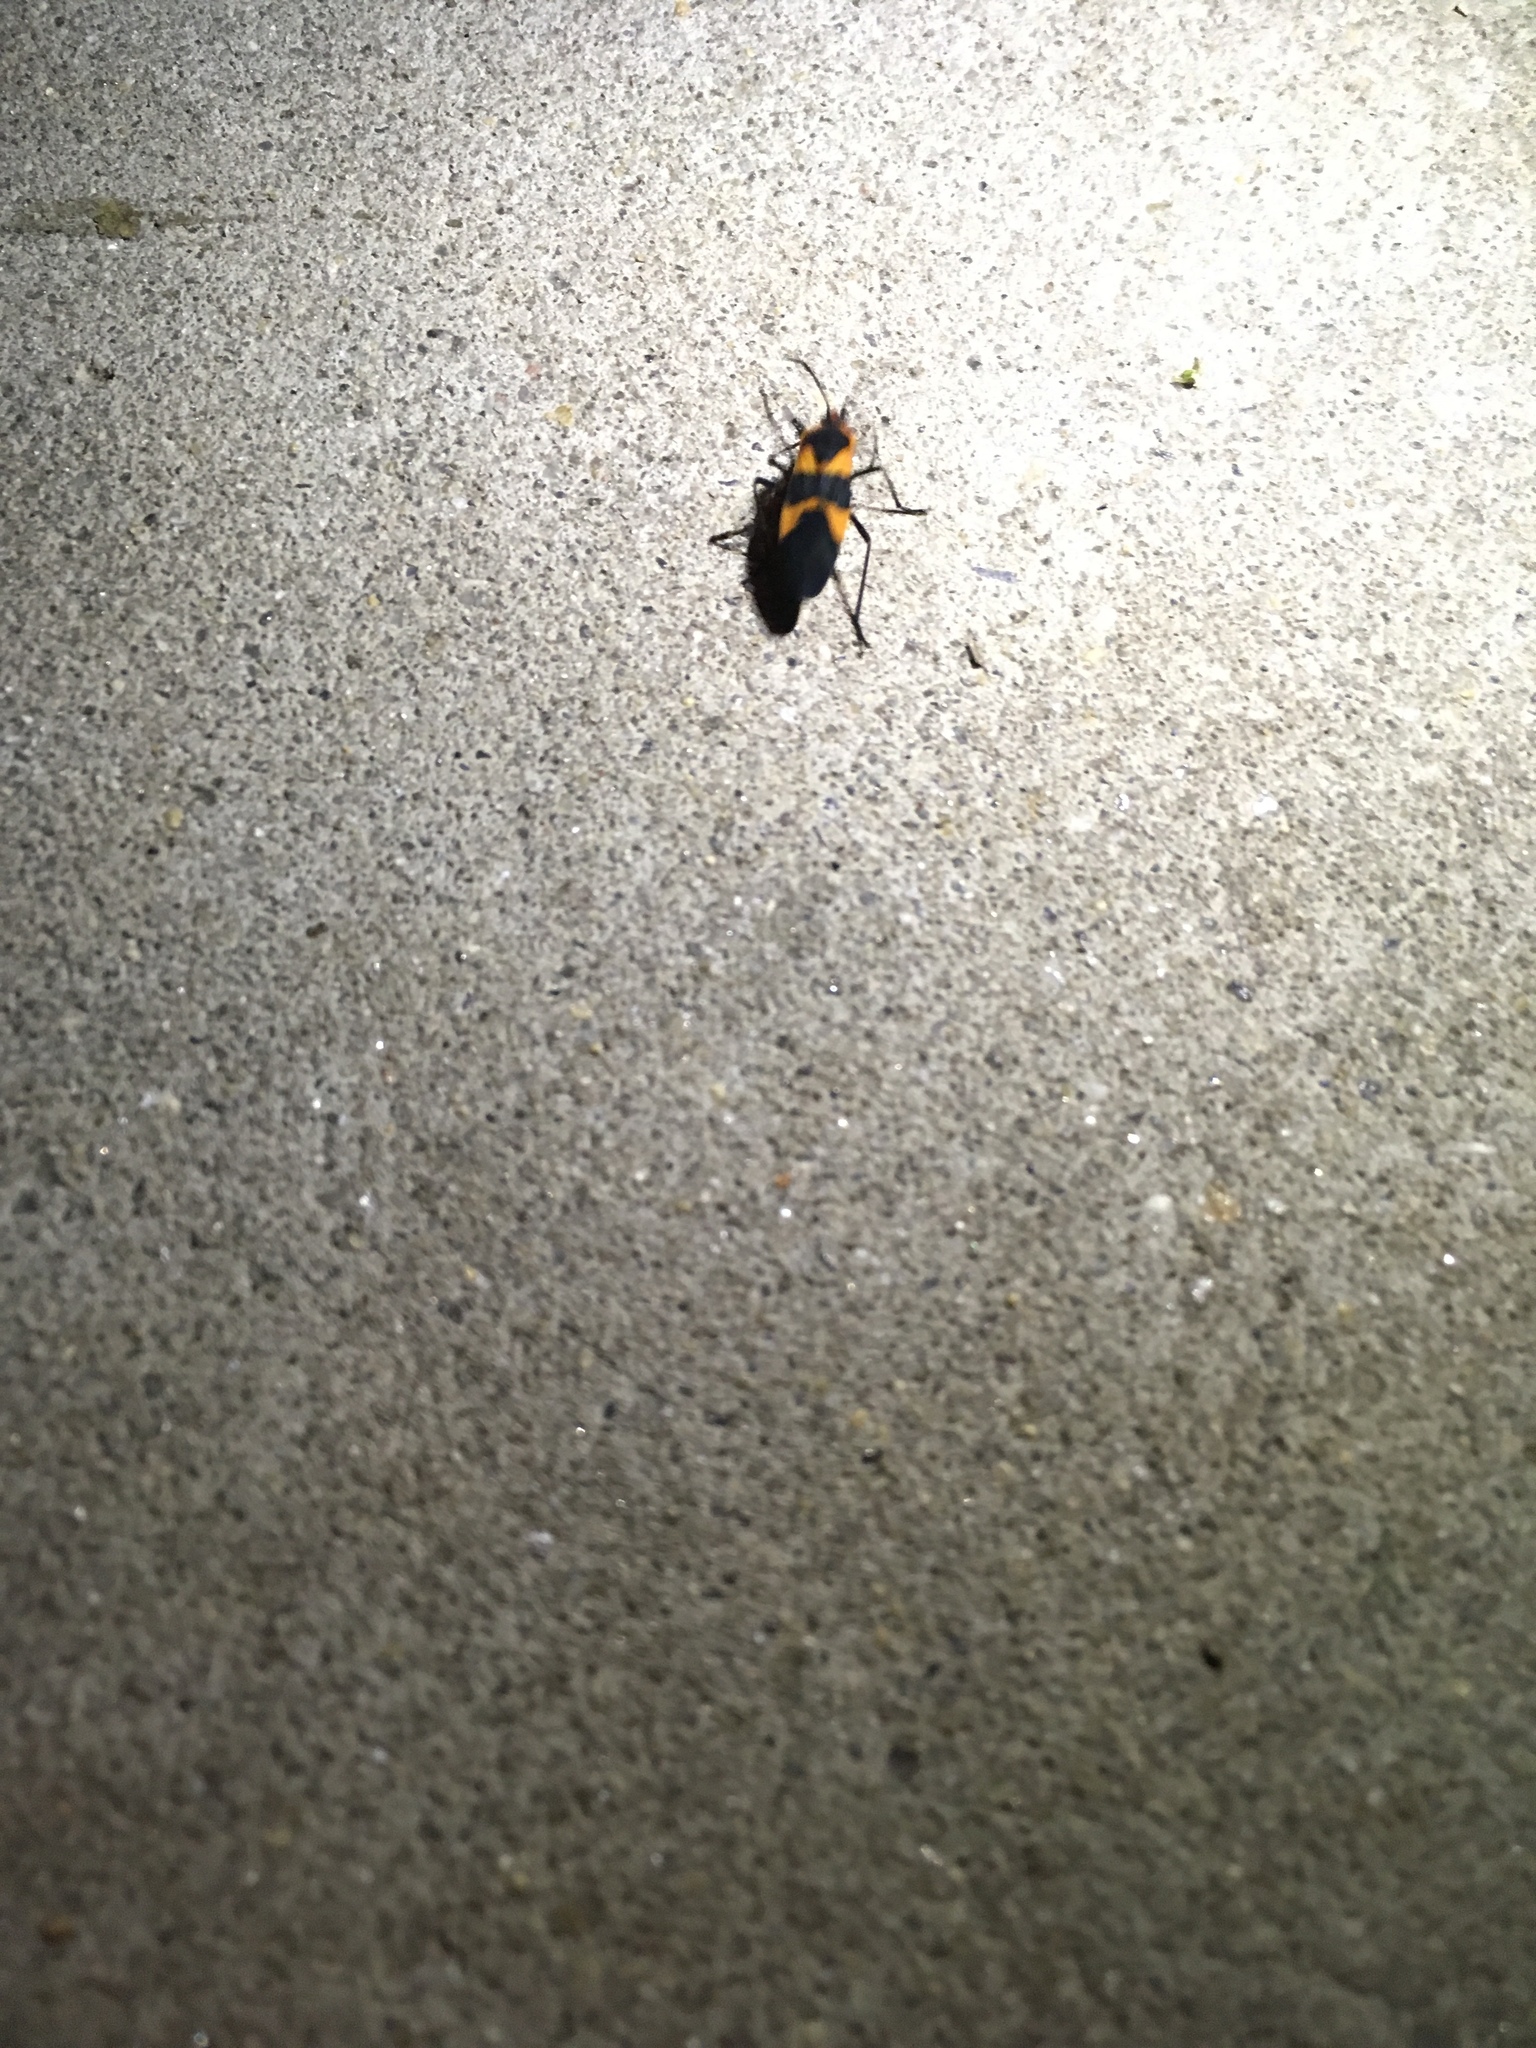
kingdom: Animalia
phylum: Arthropoda
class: Insecta
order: Hemiptera
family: Lygaeidae
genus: Oncopeltus
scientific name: Oncopeltus fasciatus
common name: Large milkweed bug
